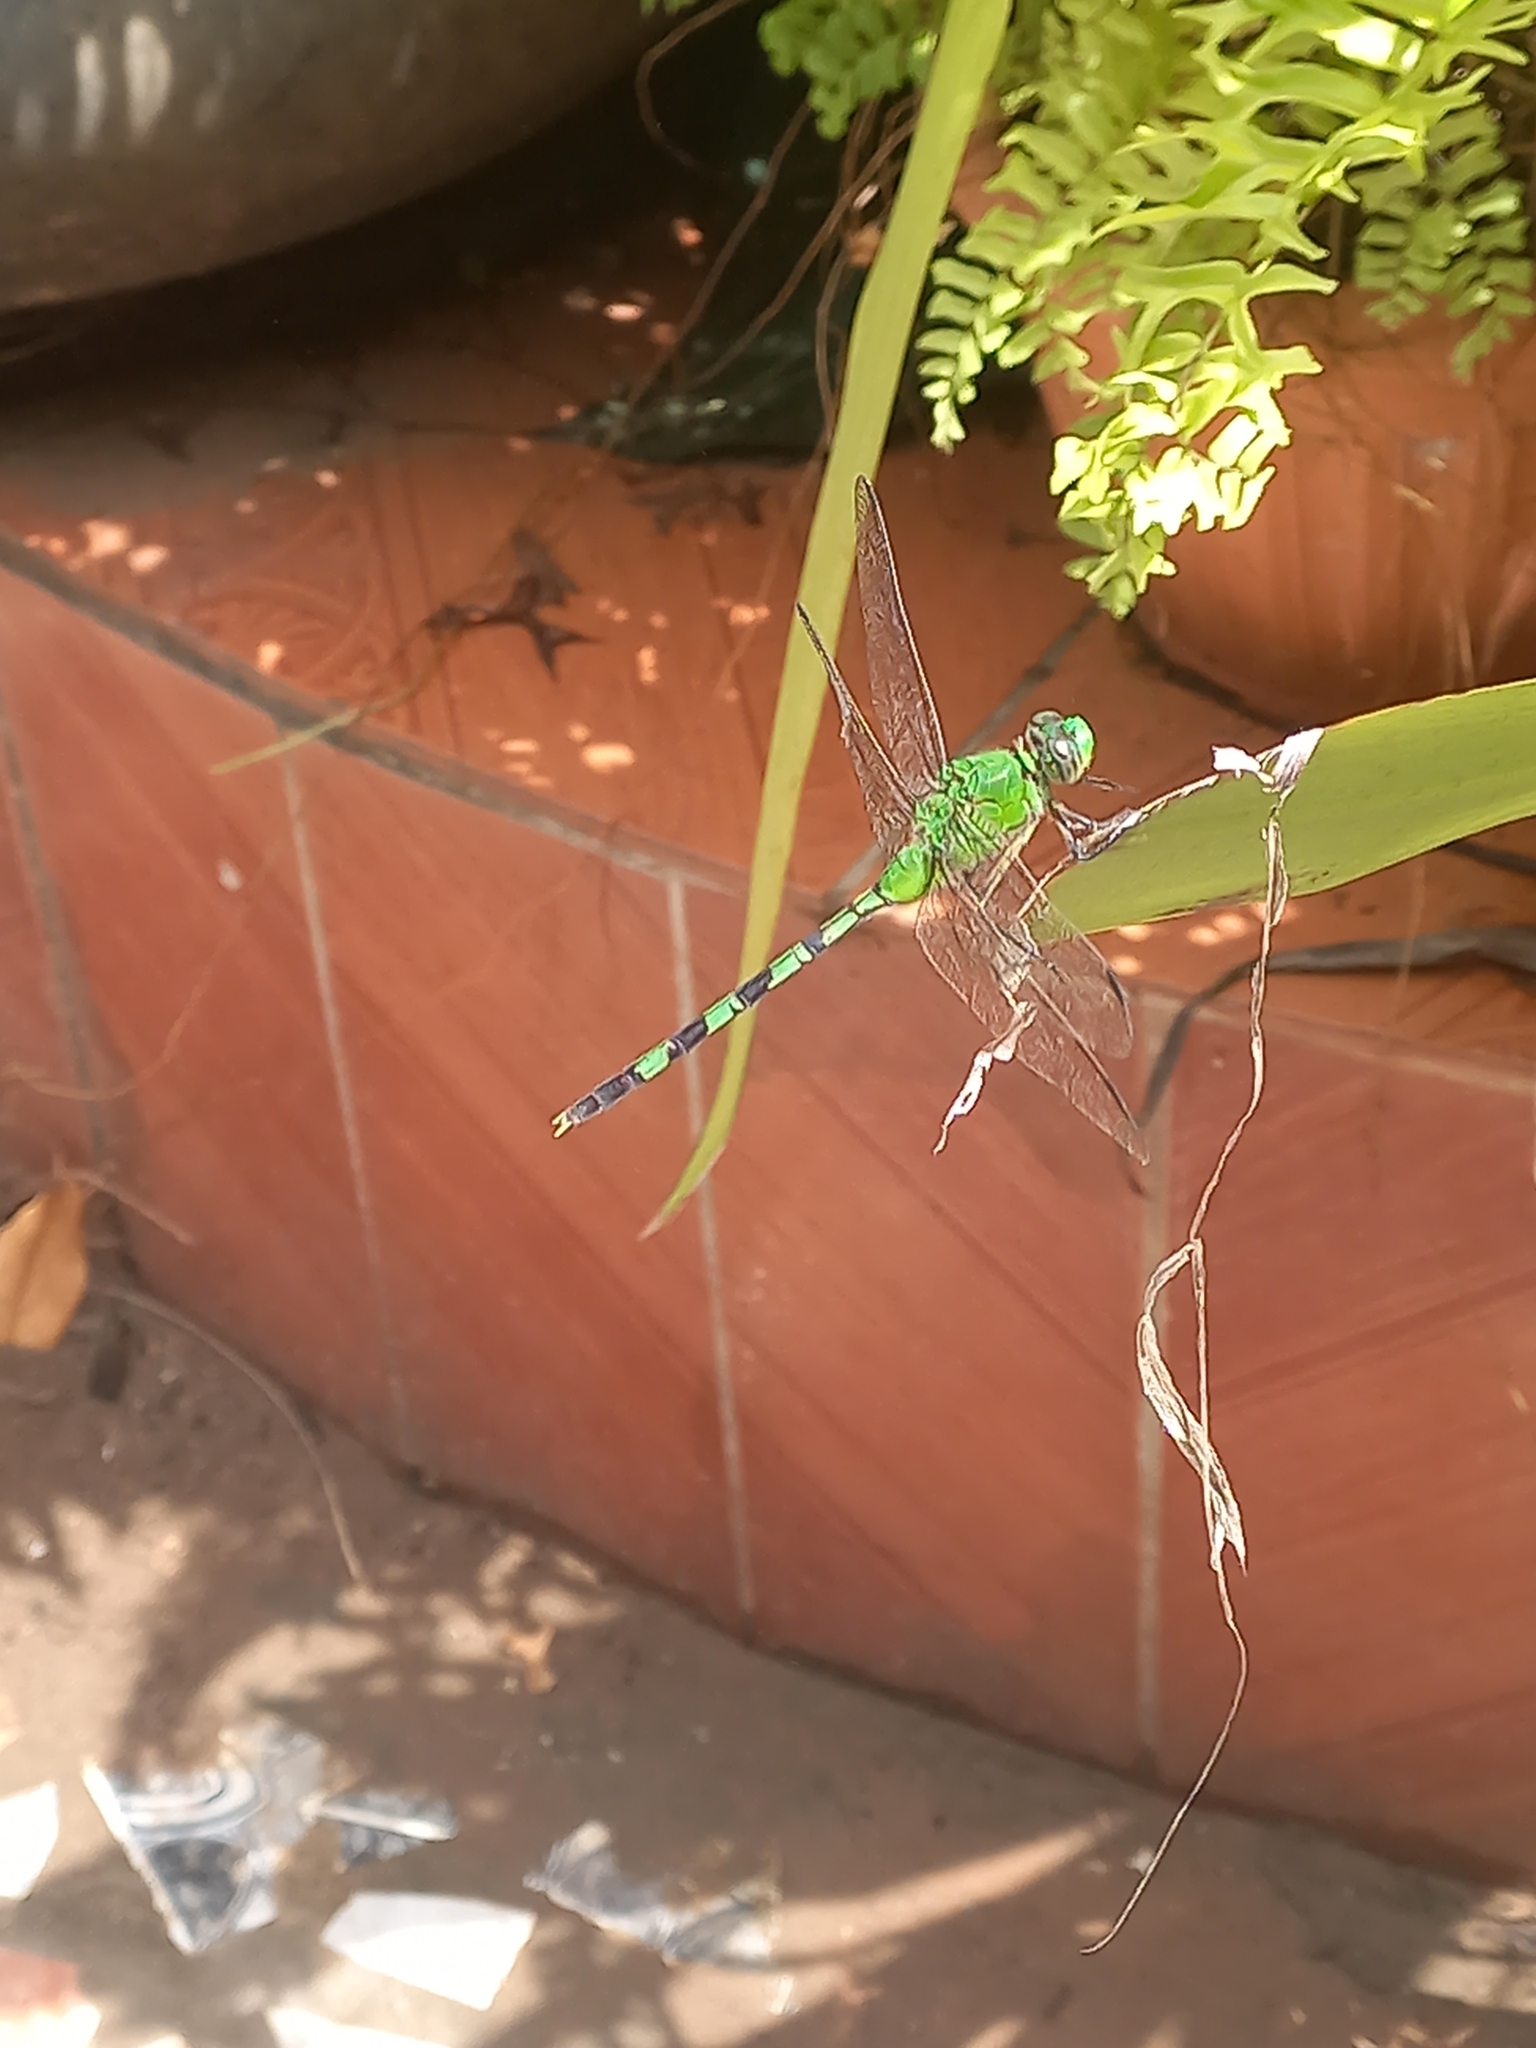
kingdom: Animalia
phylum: Arthropoda
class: Insecta
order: Odonata
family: Libellulidae
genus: Erythemis
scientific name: Erythemis vesiculosa
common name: Great pondhawk
